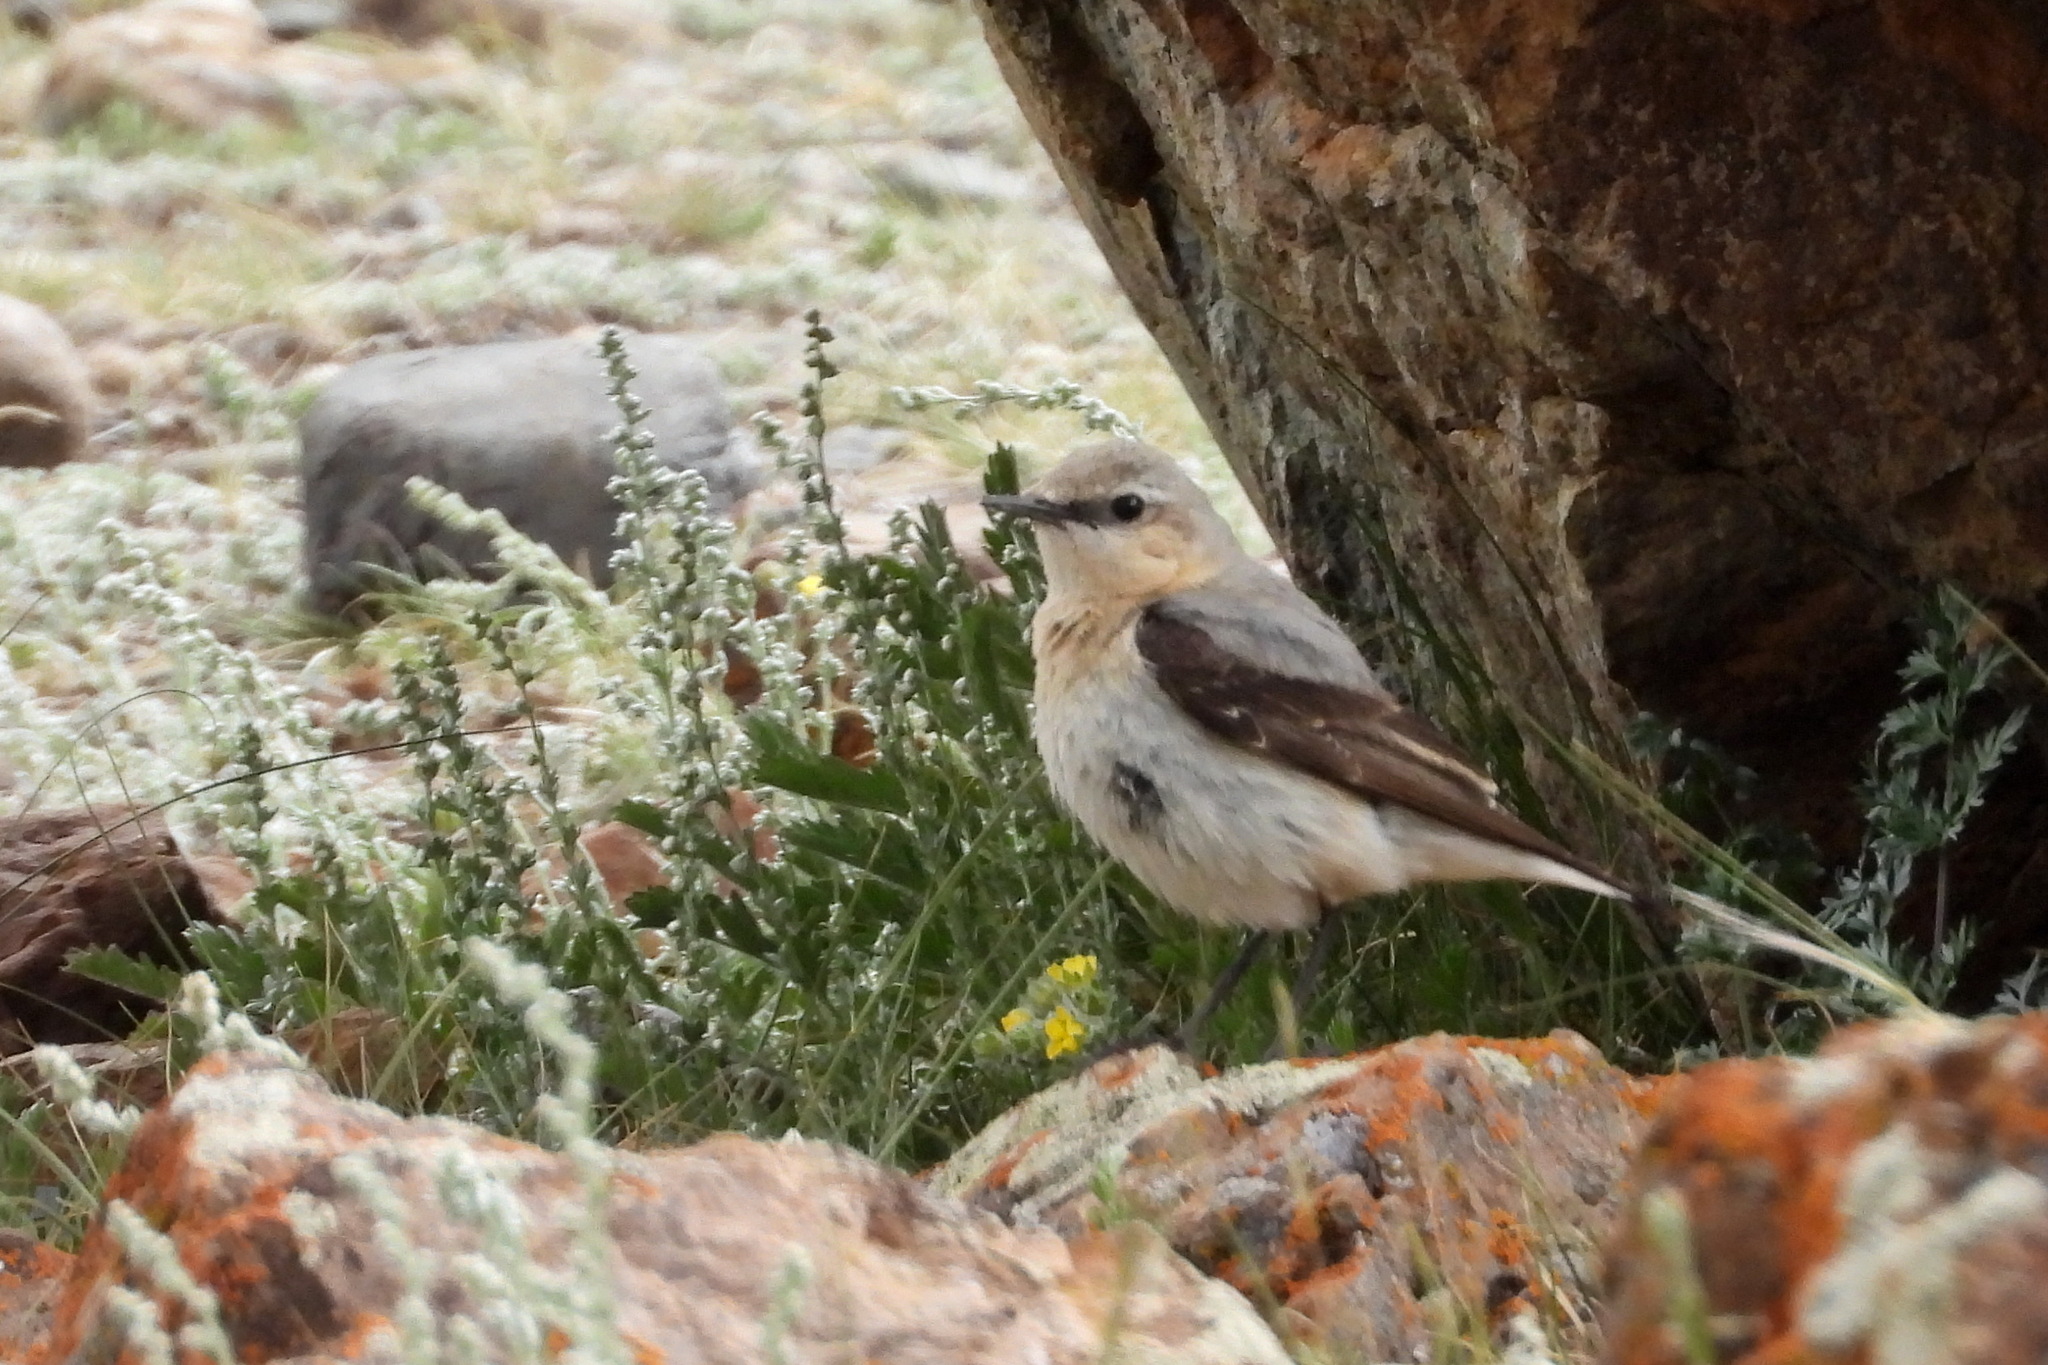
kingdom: Animalia
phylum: Chordata
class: Aves
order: Passeriformes
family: Muscicapidae
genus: Oenanthe
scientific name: Oenanthe oenanthe
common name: Northern wheatear
